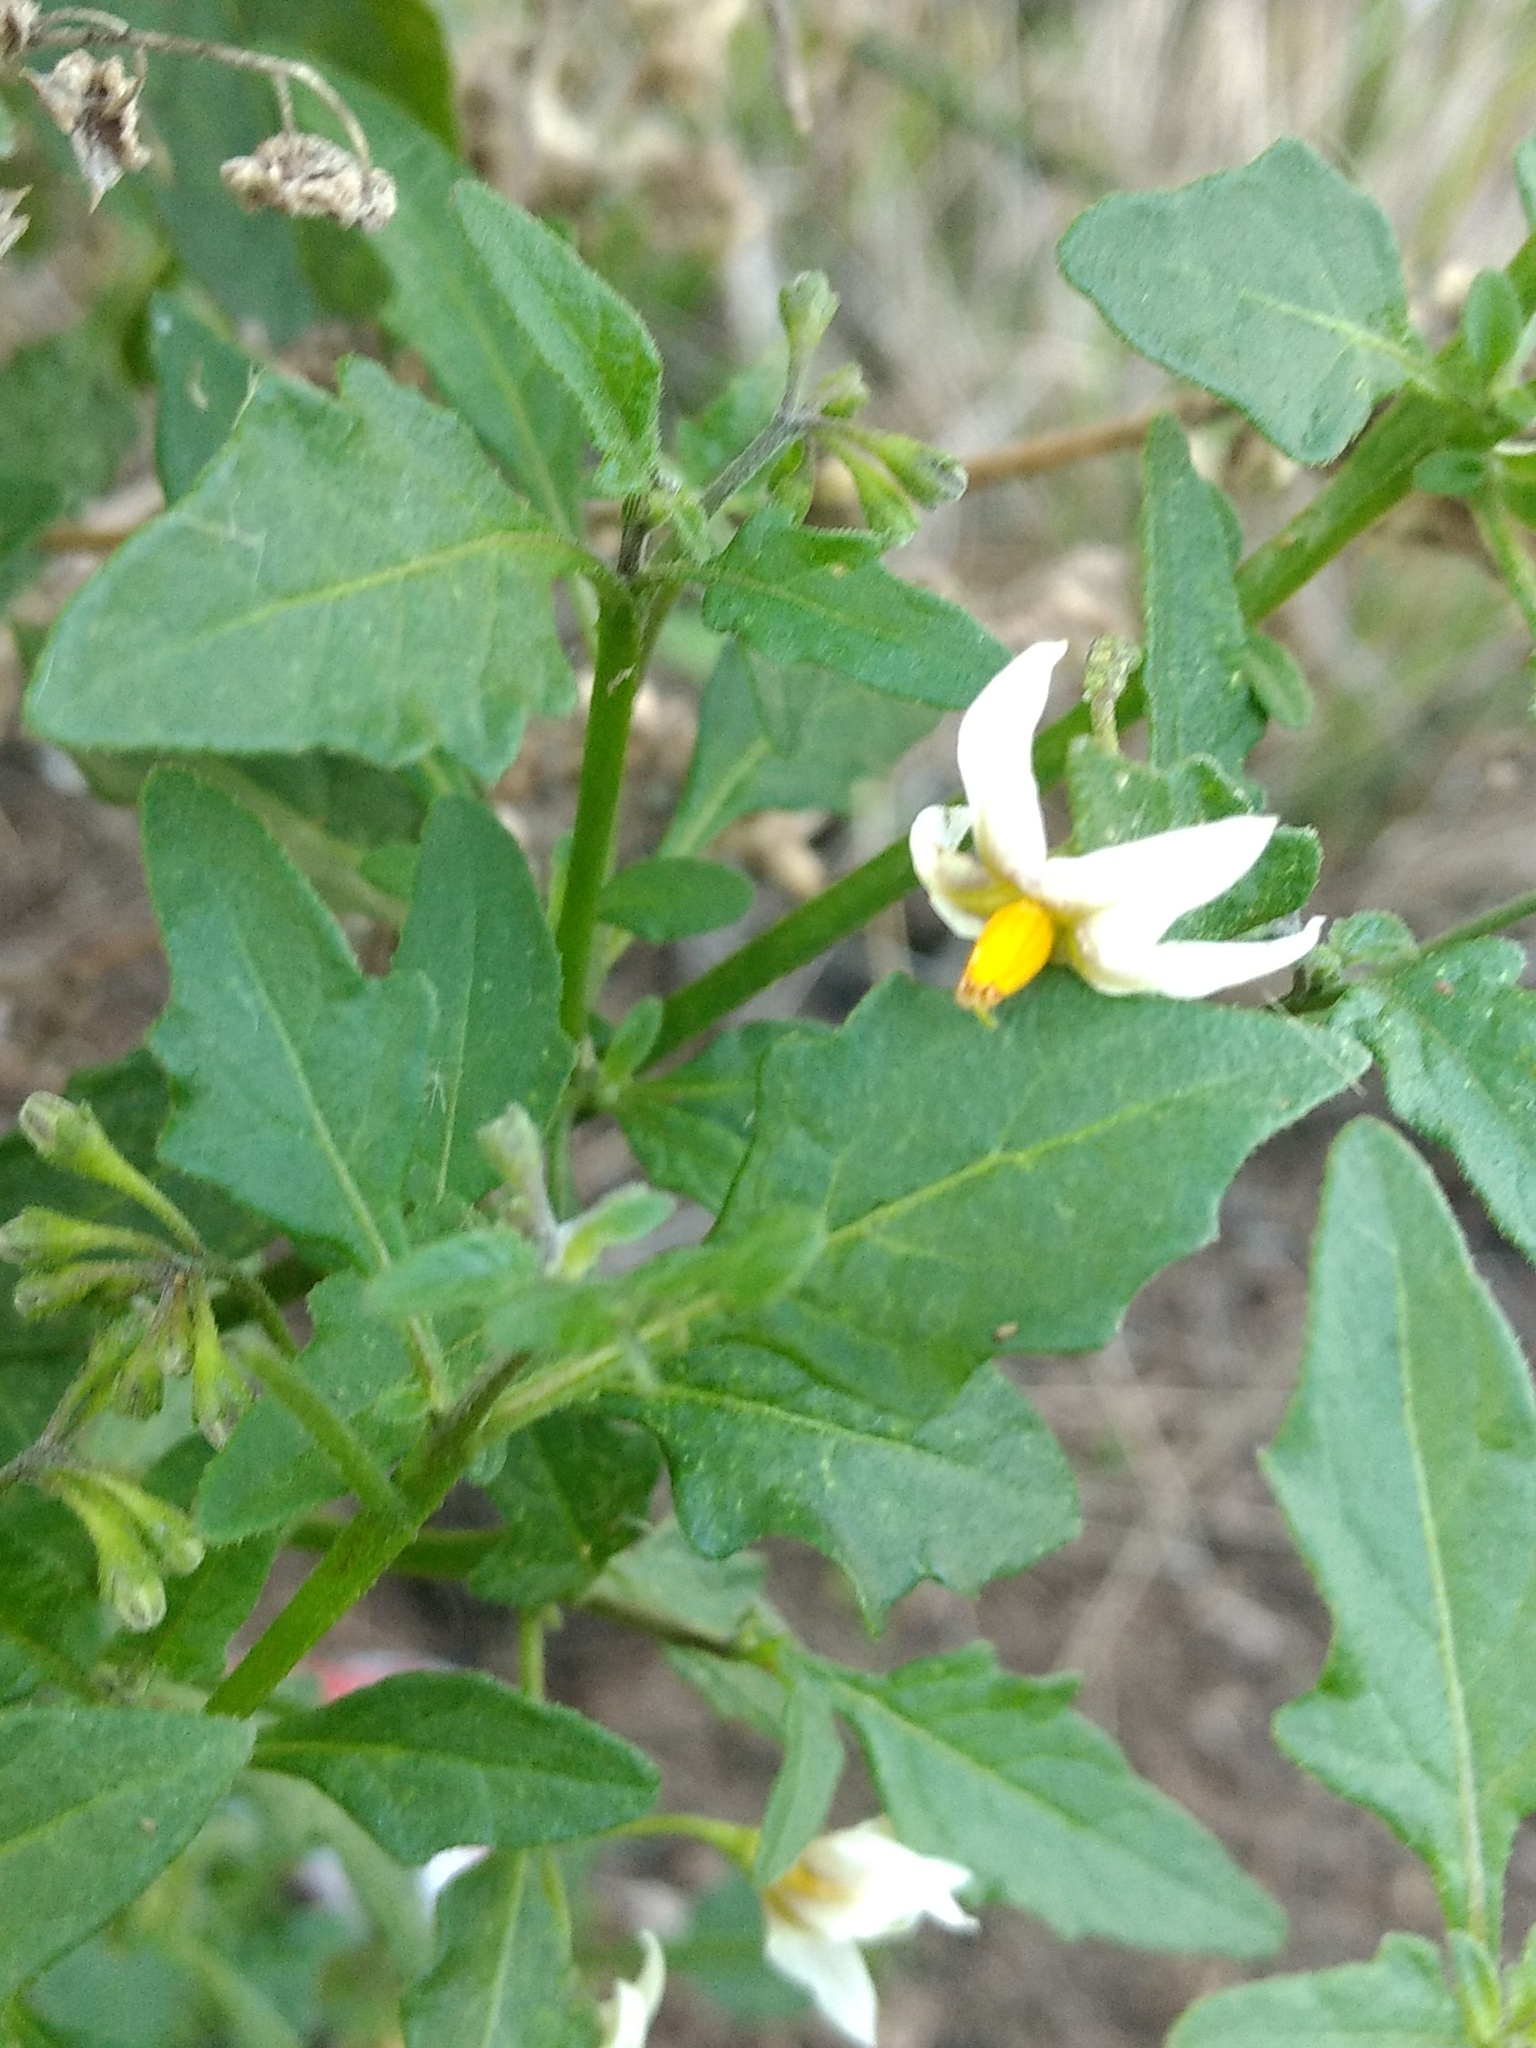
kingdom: Plantae
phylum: Tracheophyta
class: Magnoliopsida
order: Solanales
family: Solanaceae
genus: Solanum
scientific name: Solanum douglasii
